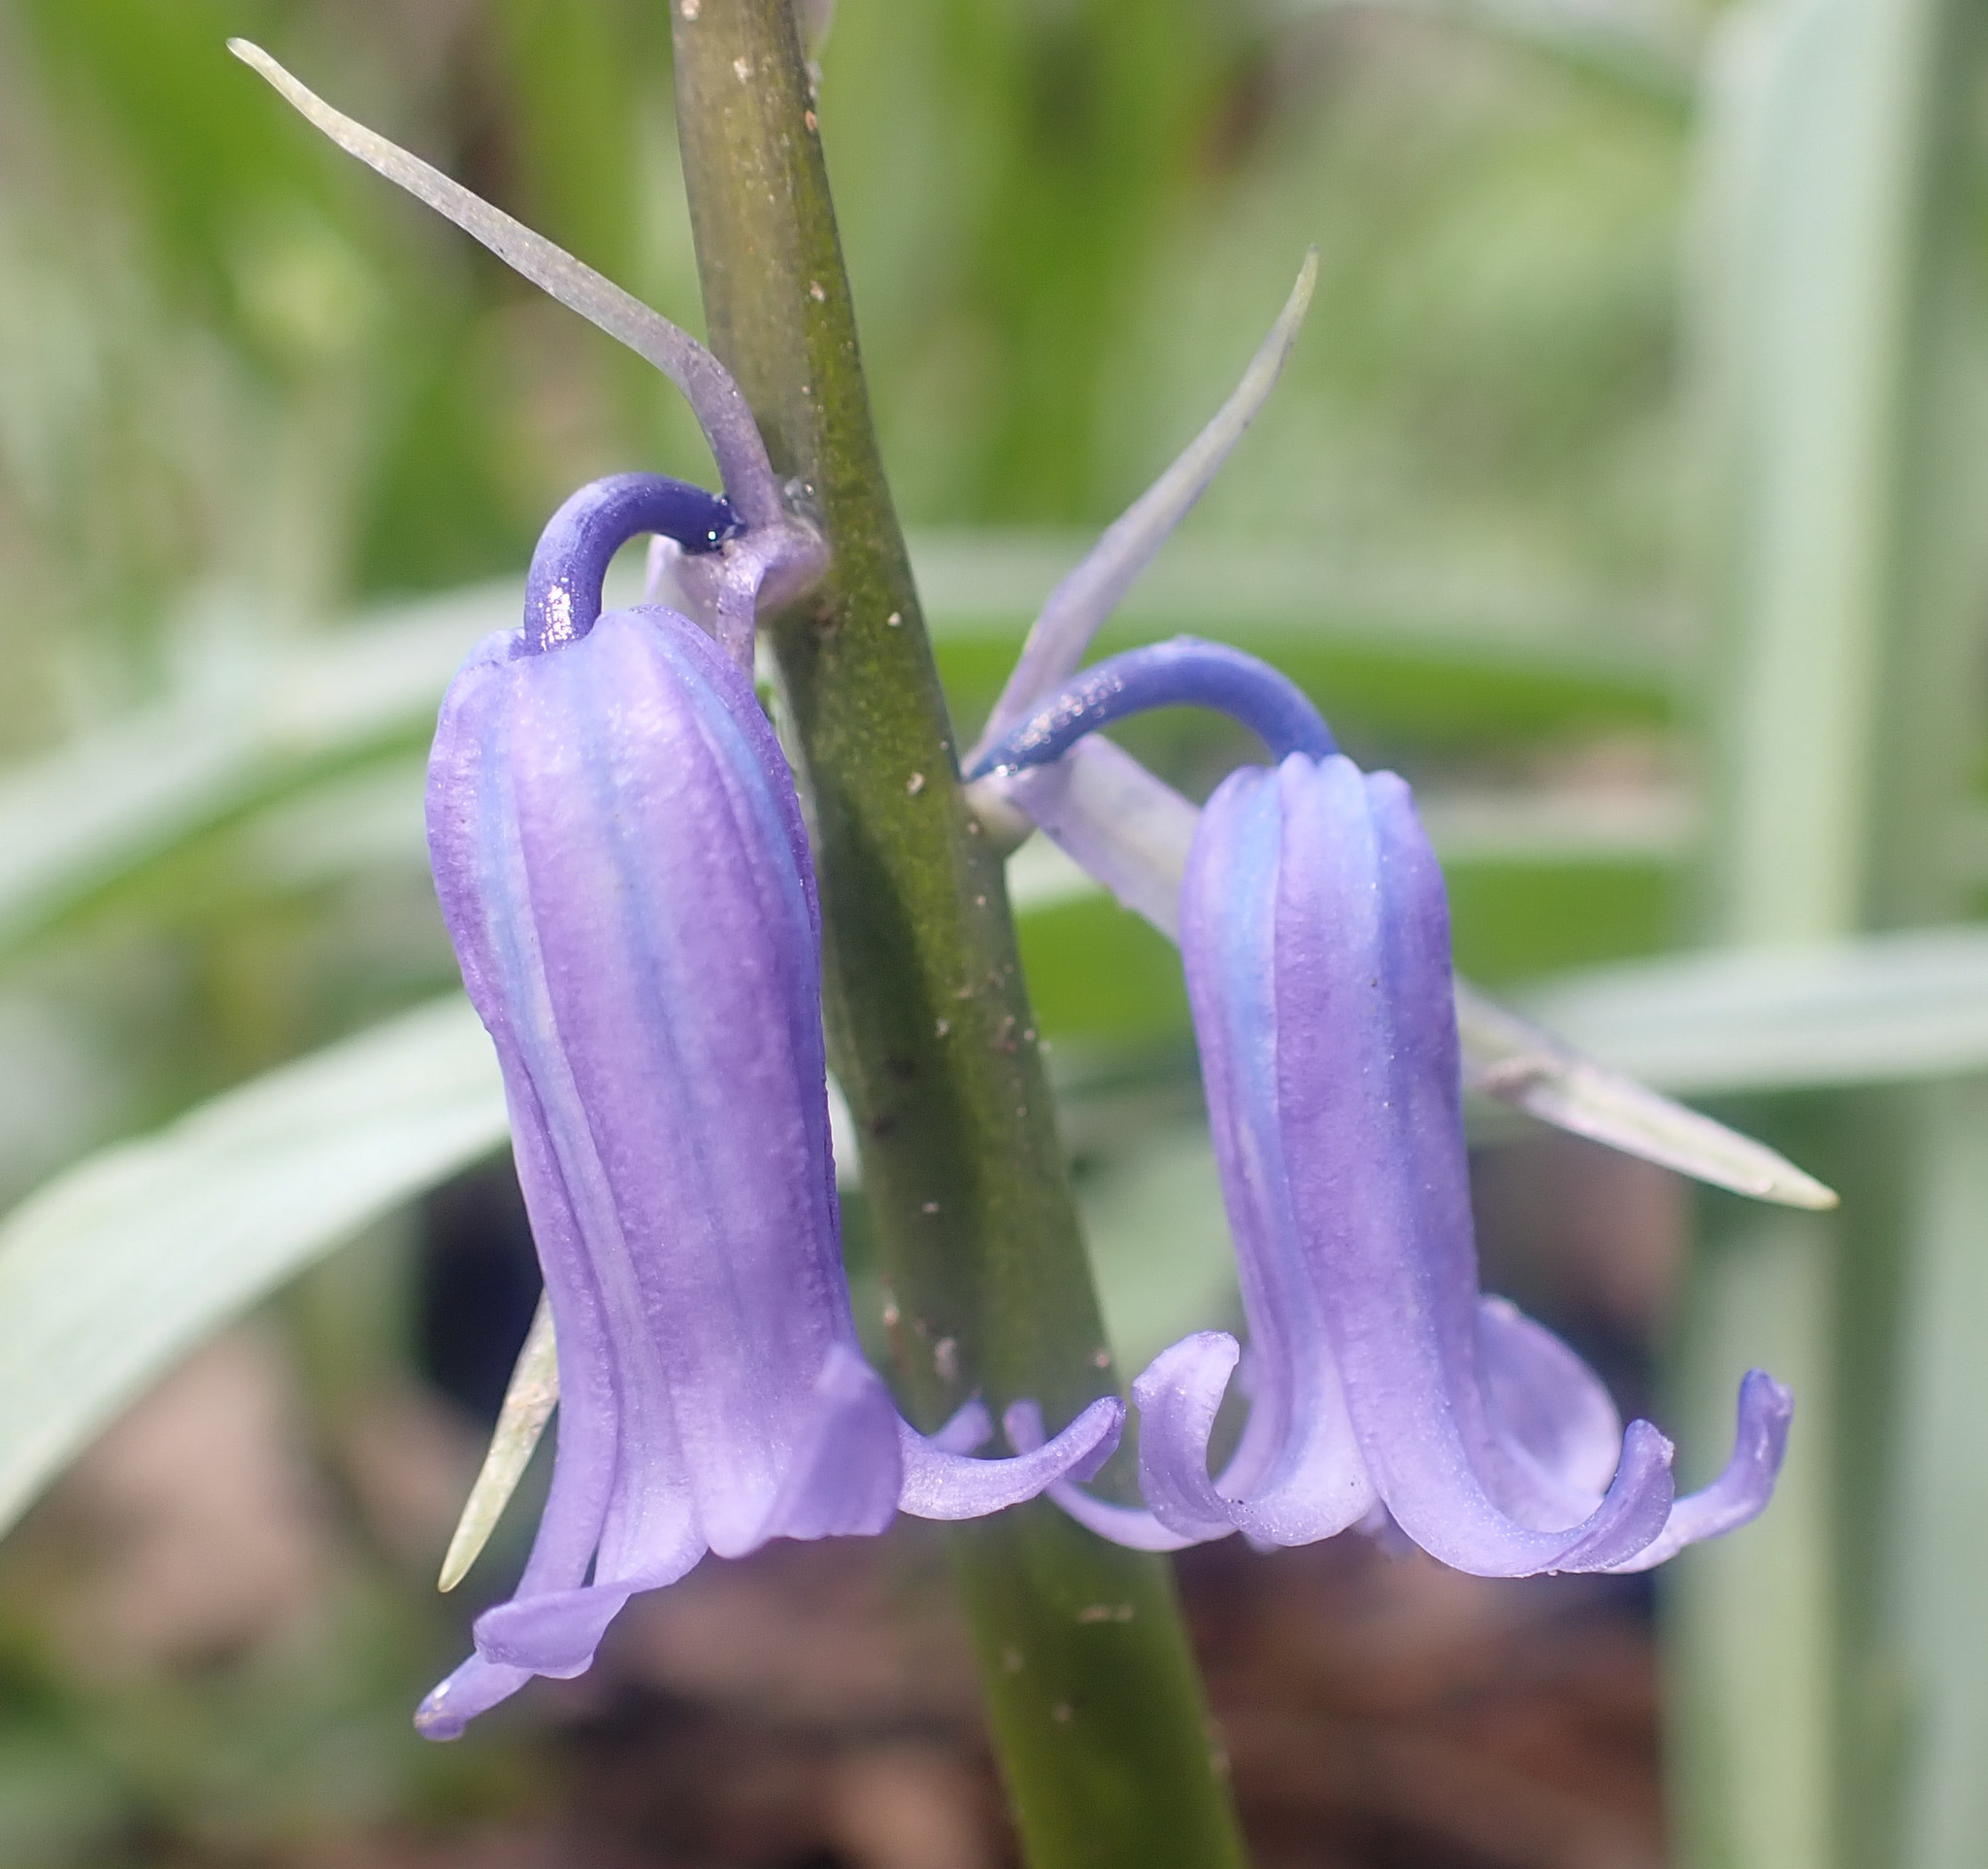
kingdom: Plantae
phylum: Tracheophyta
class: Liliopsida
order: Asparagales
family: Asparagaceae
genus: Hyacinthoides
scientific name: Hyacinthoides non-scripta
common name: Bluebell
